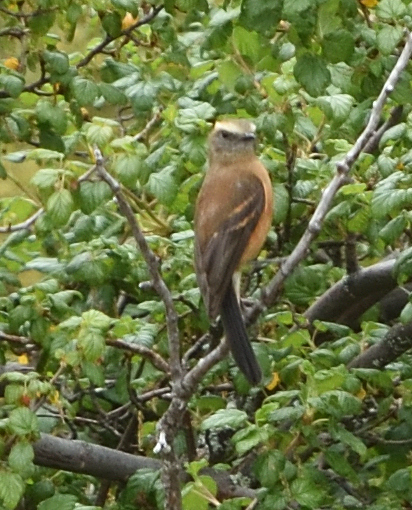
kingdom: Animalia
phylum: Chordata
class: Aves
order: Passeriformes
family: Tyrannidae
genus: Ochthoeca
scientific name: Ochthoeca fumicolor
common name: Brown-backed chat-tyrant
